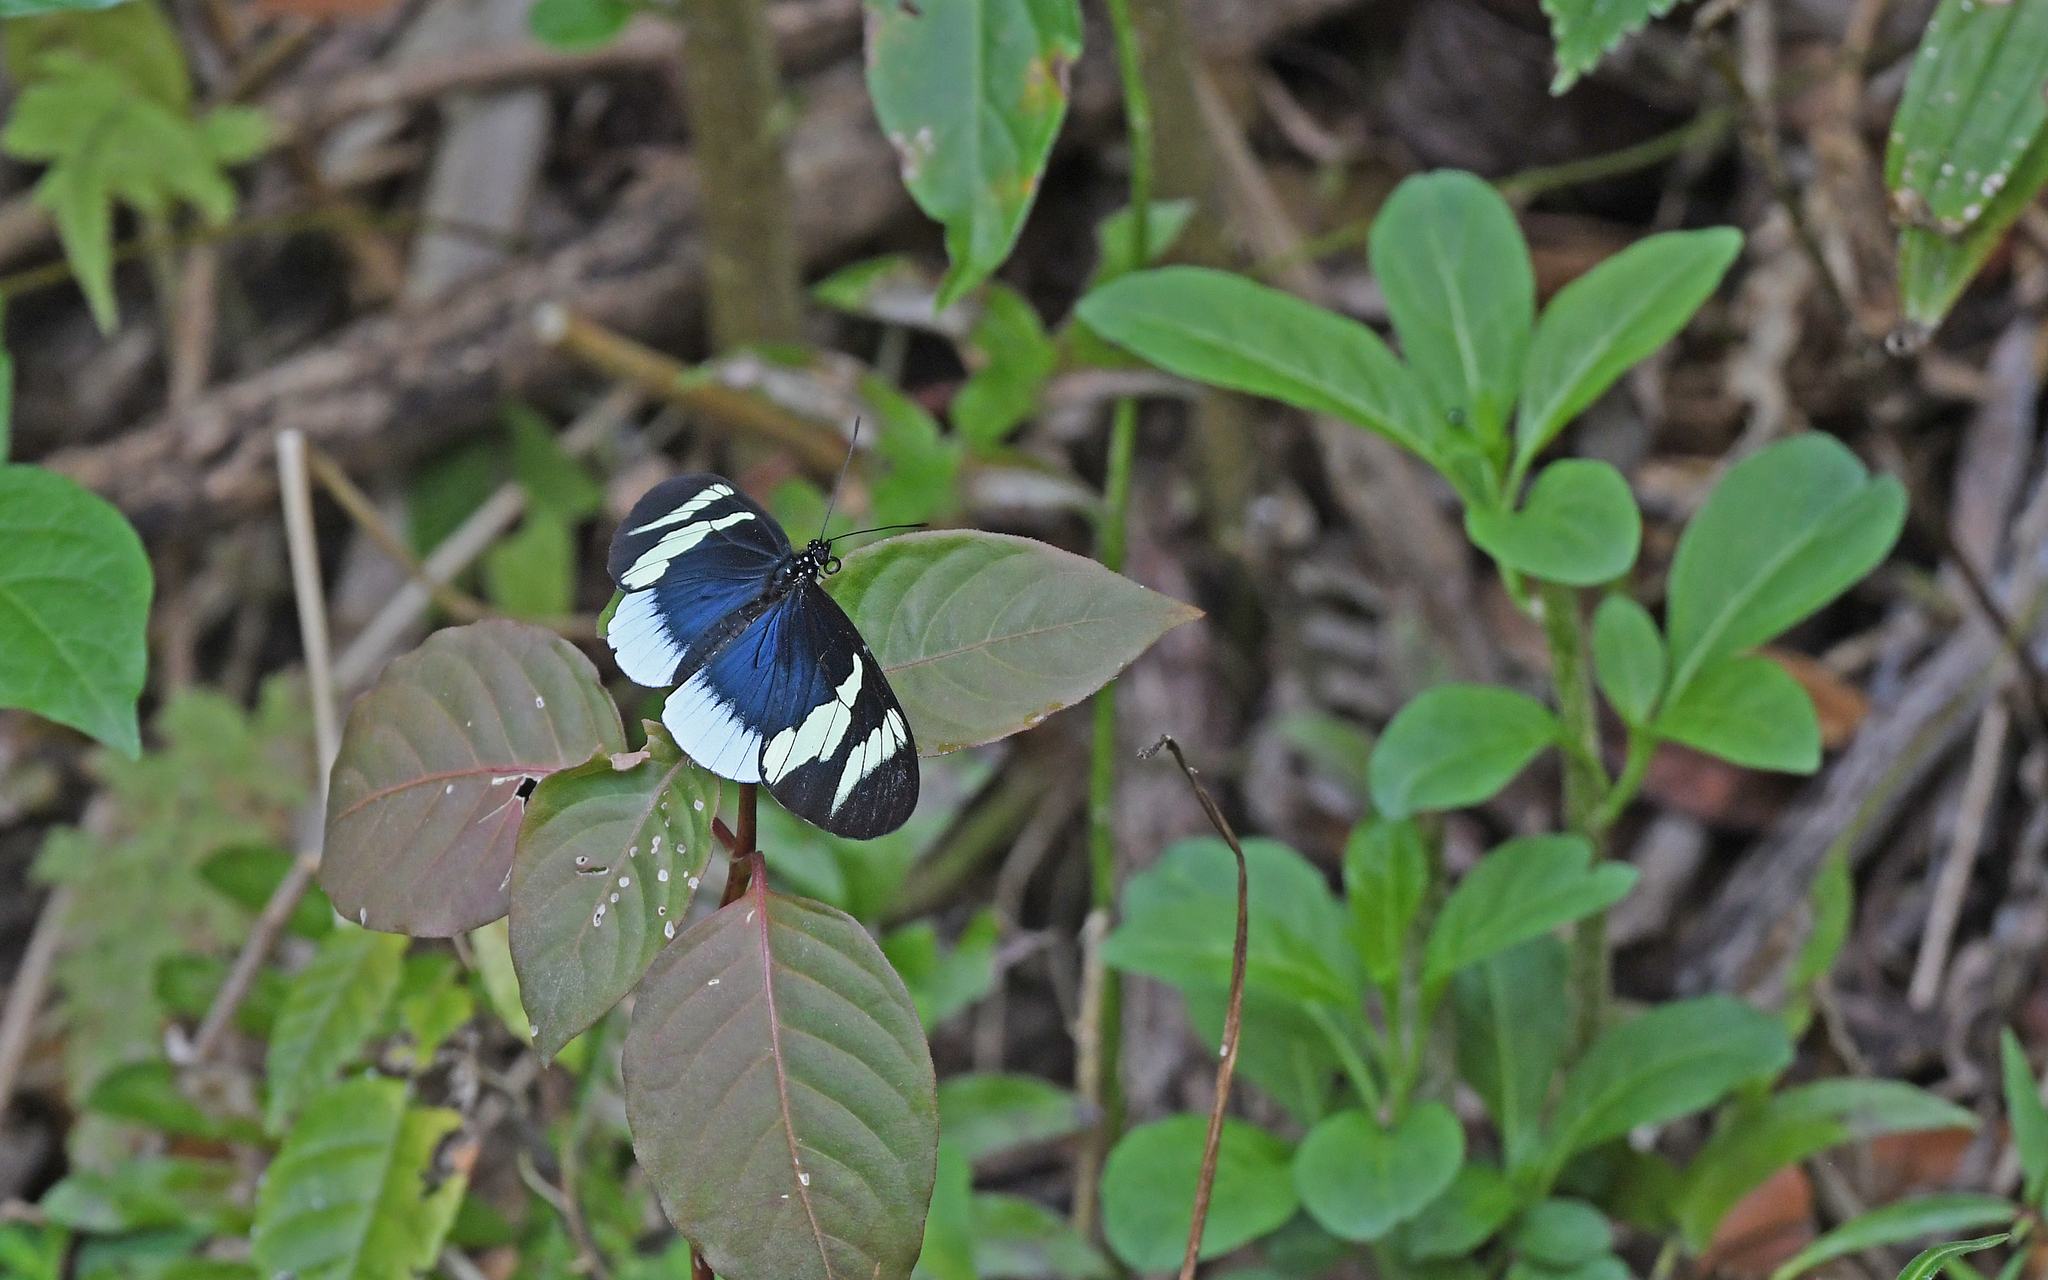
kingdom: Animalia
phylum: Arthropoda
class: Insecta
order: Lepidoptera
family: Nymphalidae
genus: Heliconius
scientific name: Heliconius eleuchia
